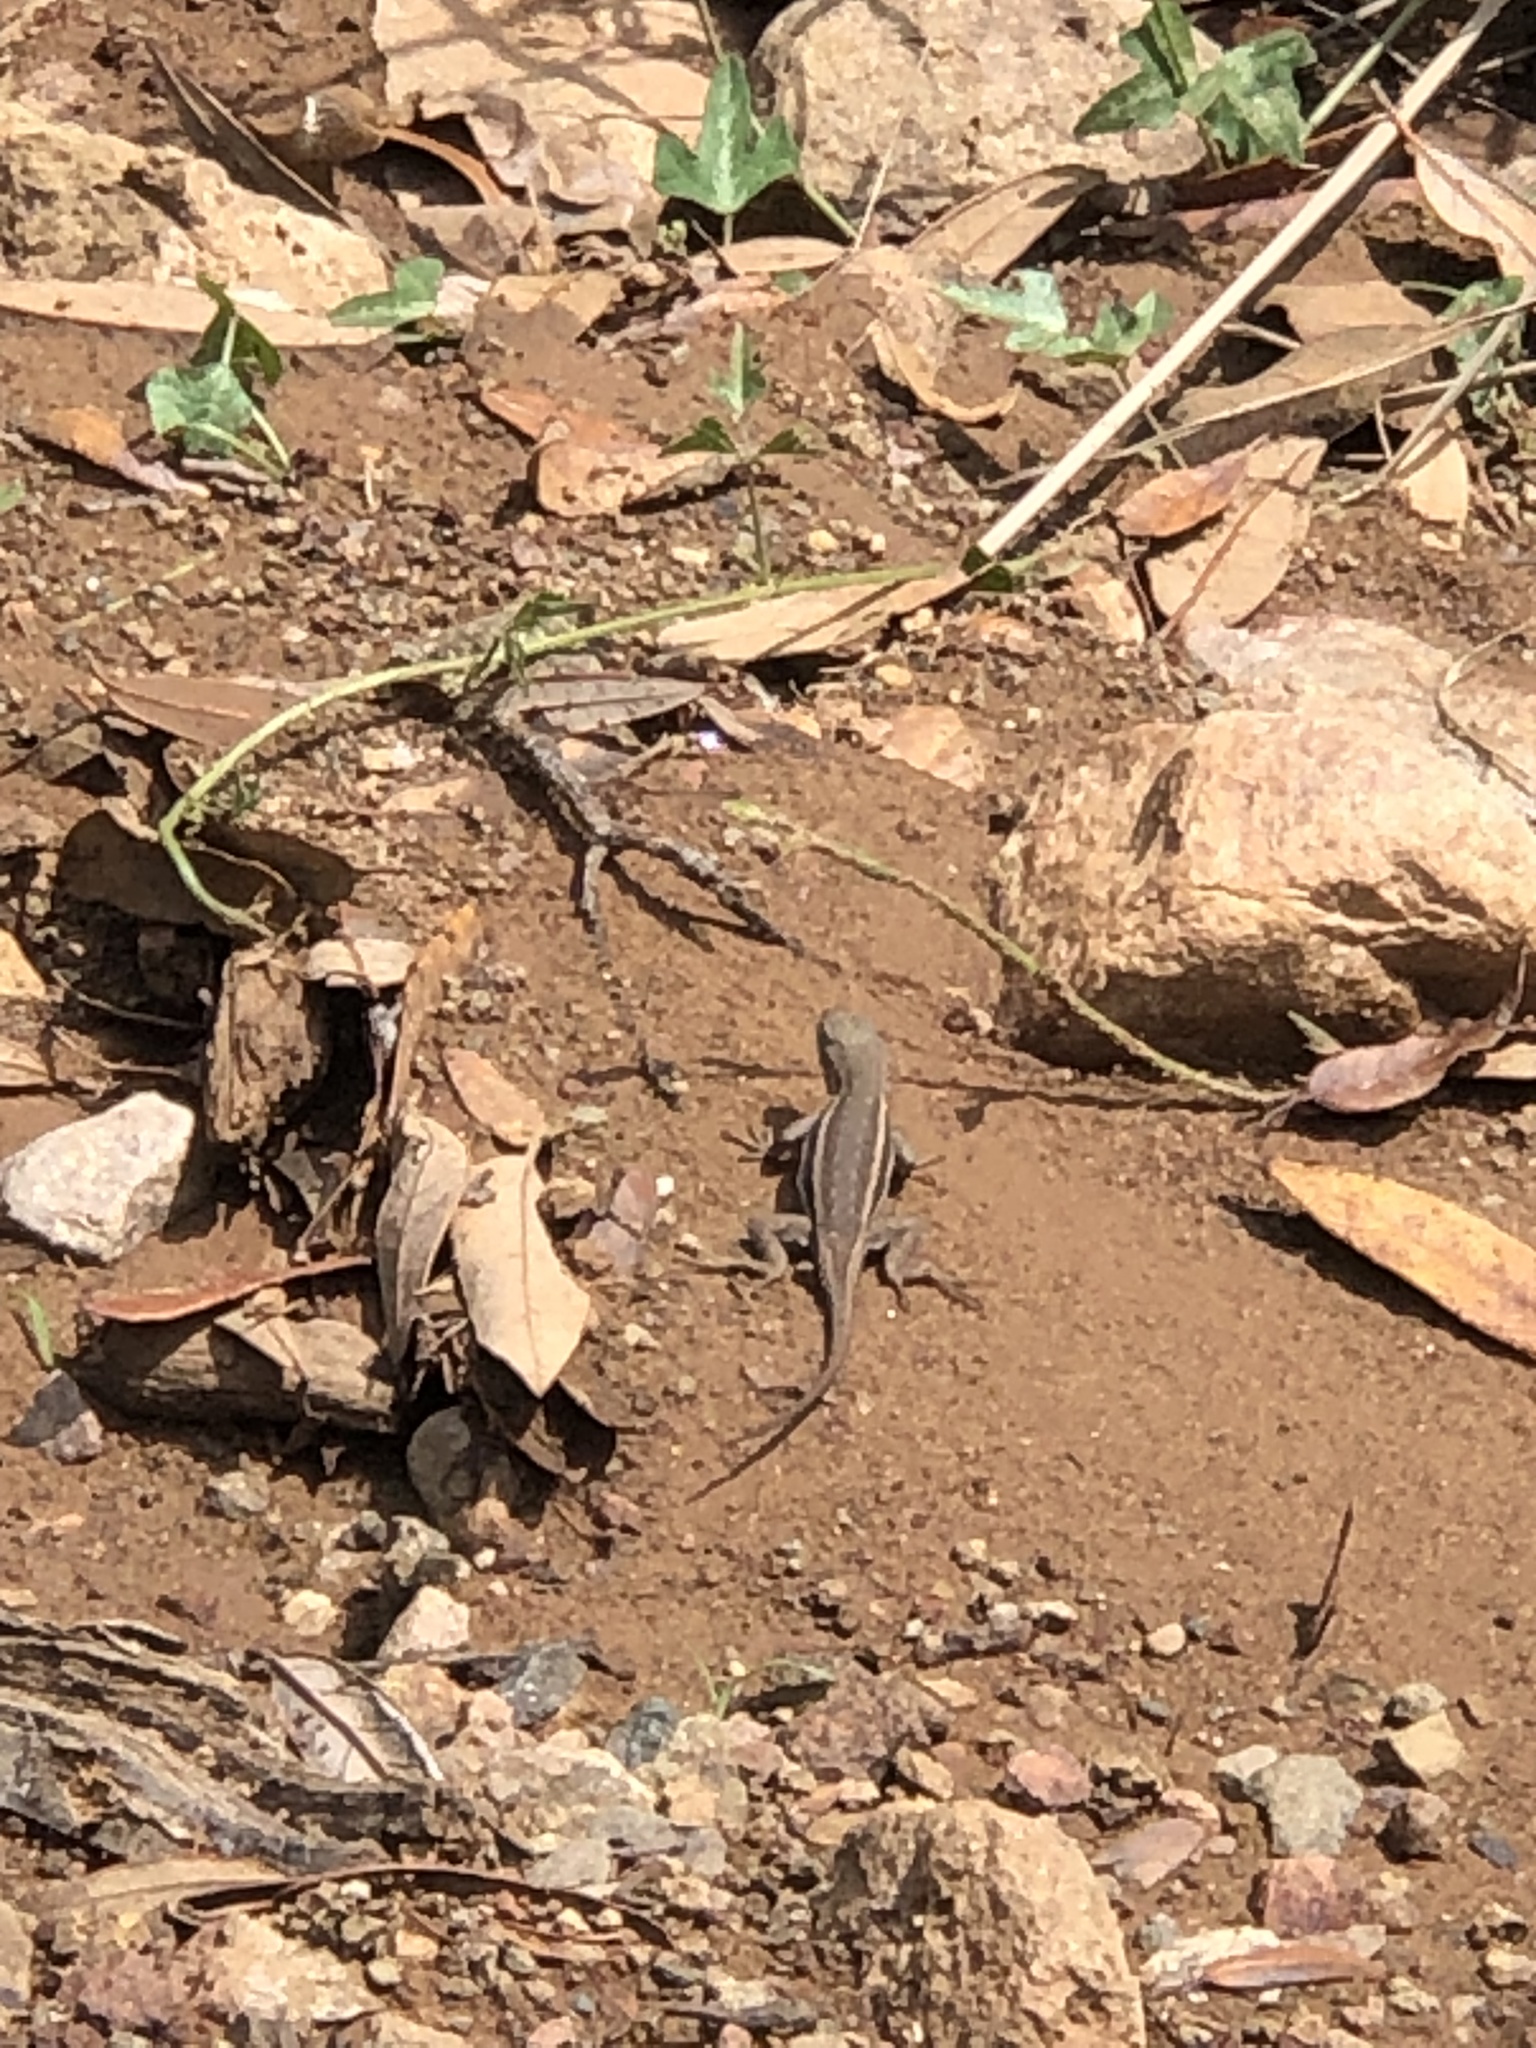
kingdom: Animalia
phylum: Chordata
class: Squamata
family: Phrynosomatidae
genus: Sceloporus
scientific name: Sceloporus virgatus
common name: Striped plateau lizard
